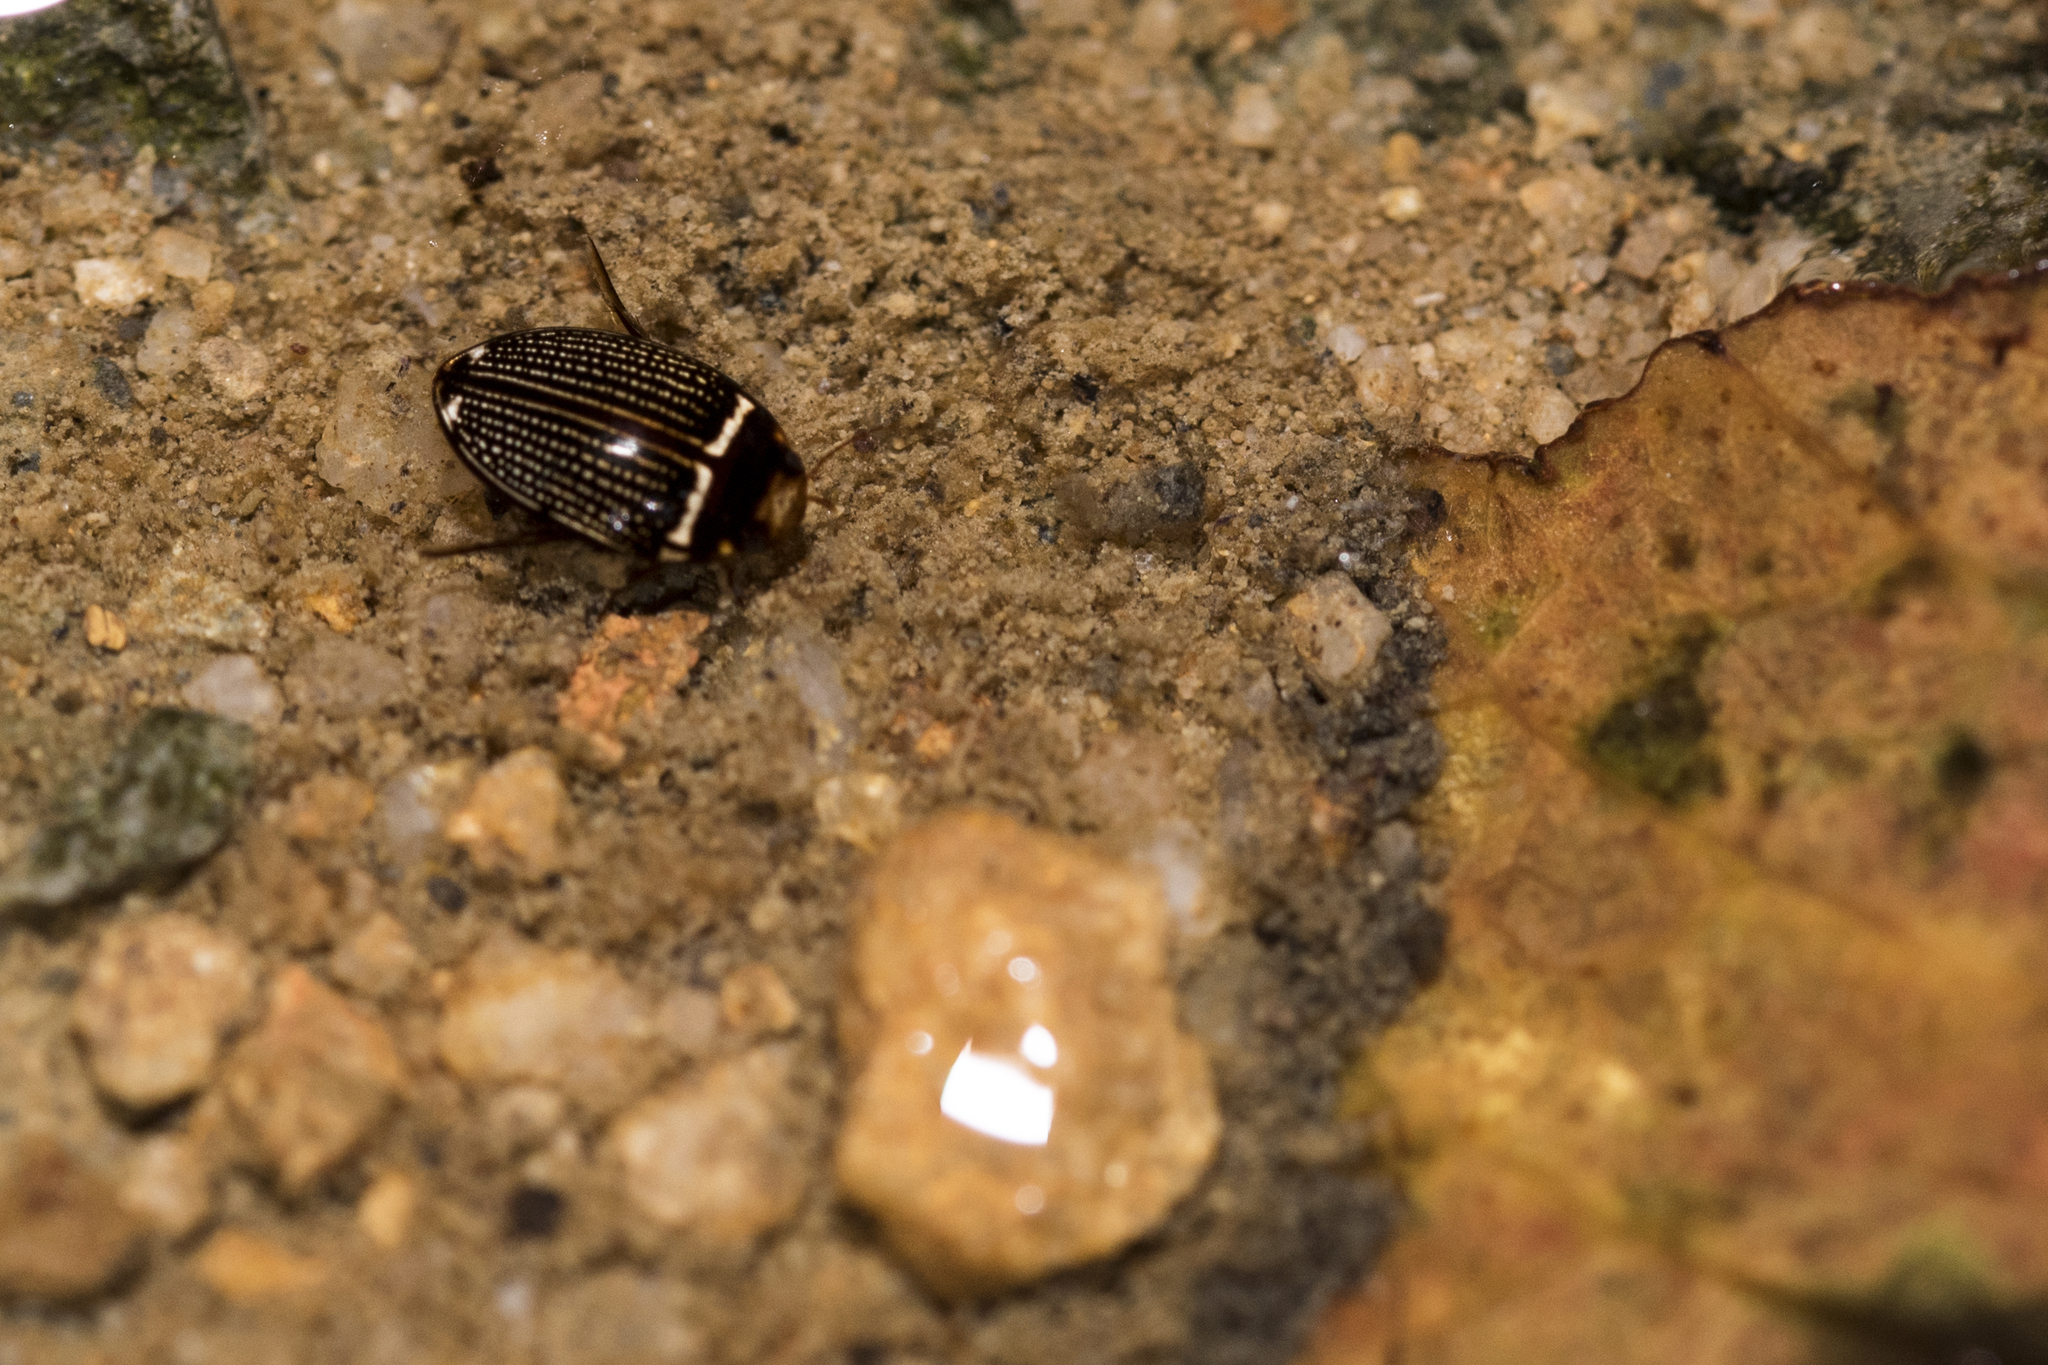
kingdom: Animalia
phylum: Arthropoda
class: Insecta
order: Coleoptera
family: Dytiscidae
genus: Platynectes
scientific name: Platynectes gemellatus
